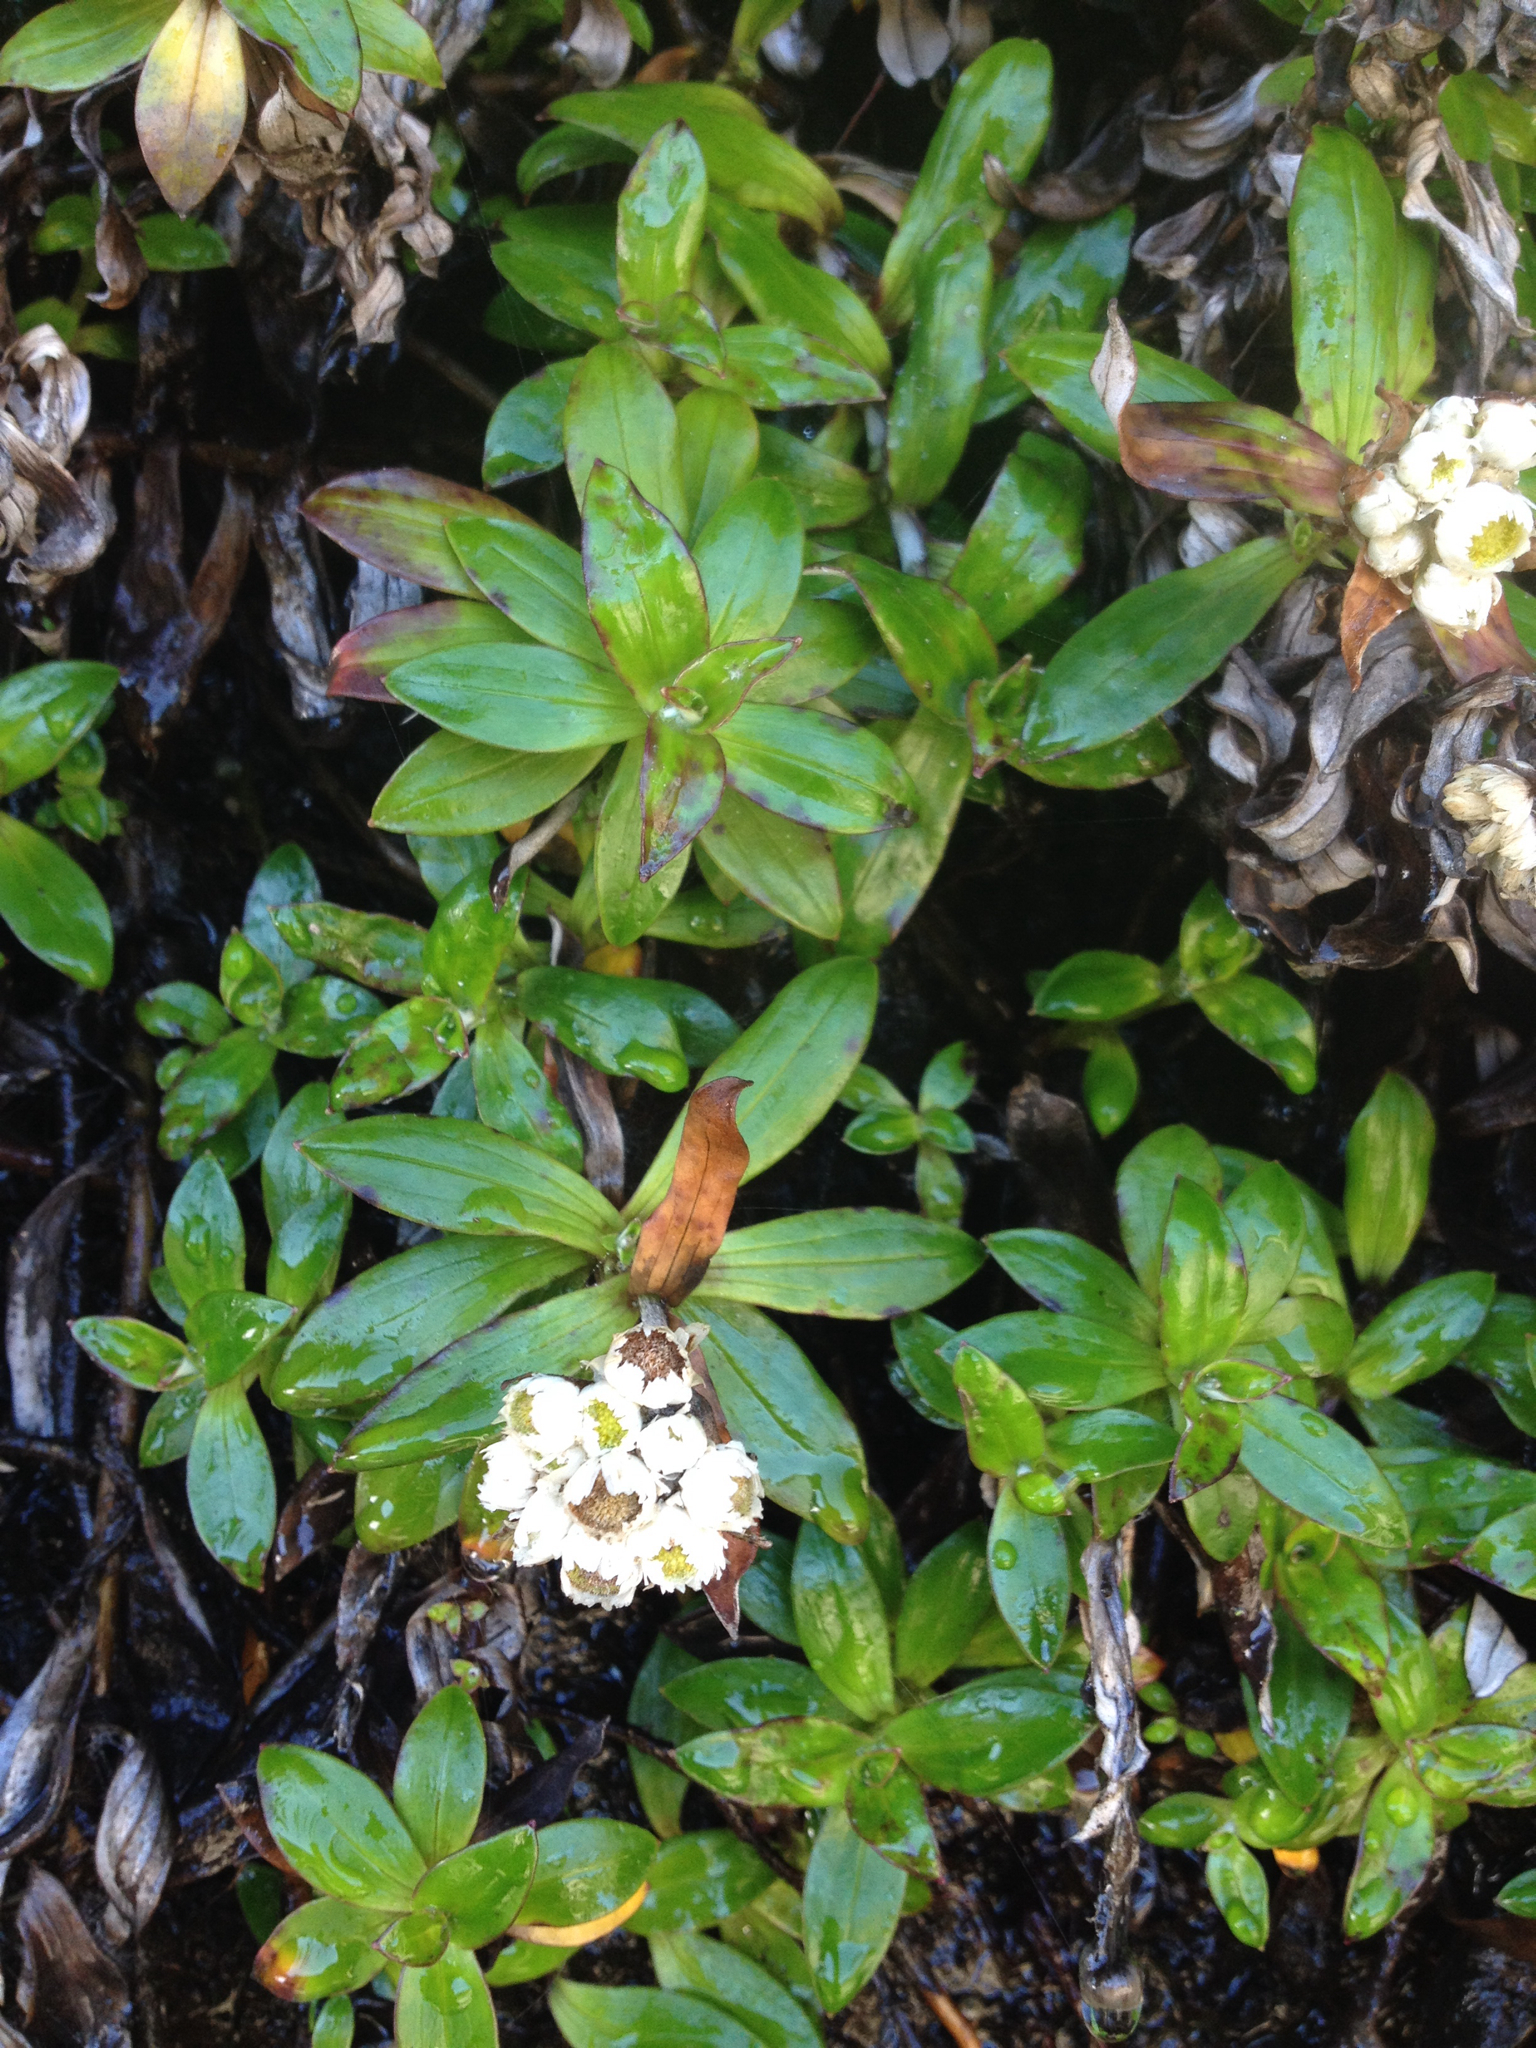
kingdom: Plantae
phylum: Tracheophyta
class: Magnoliopsida
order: Asterales
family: Asteraceae
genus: Anaphalioides
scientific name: Anaphalioides trinervis
